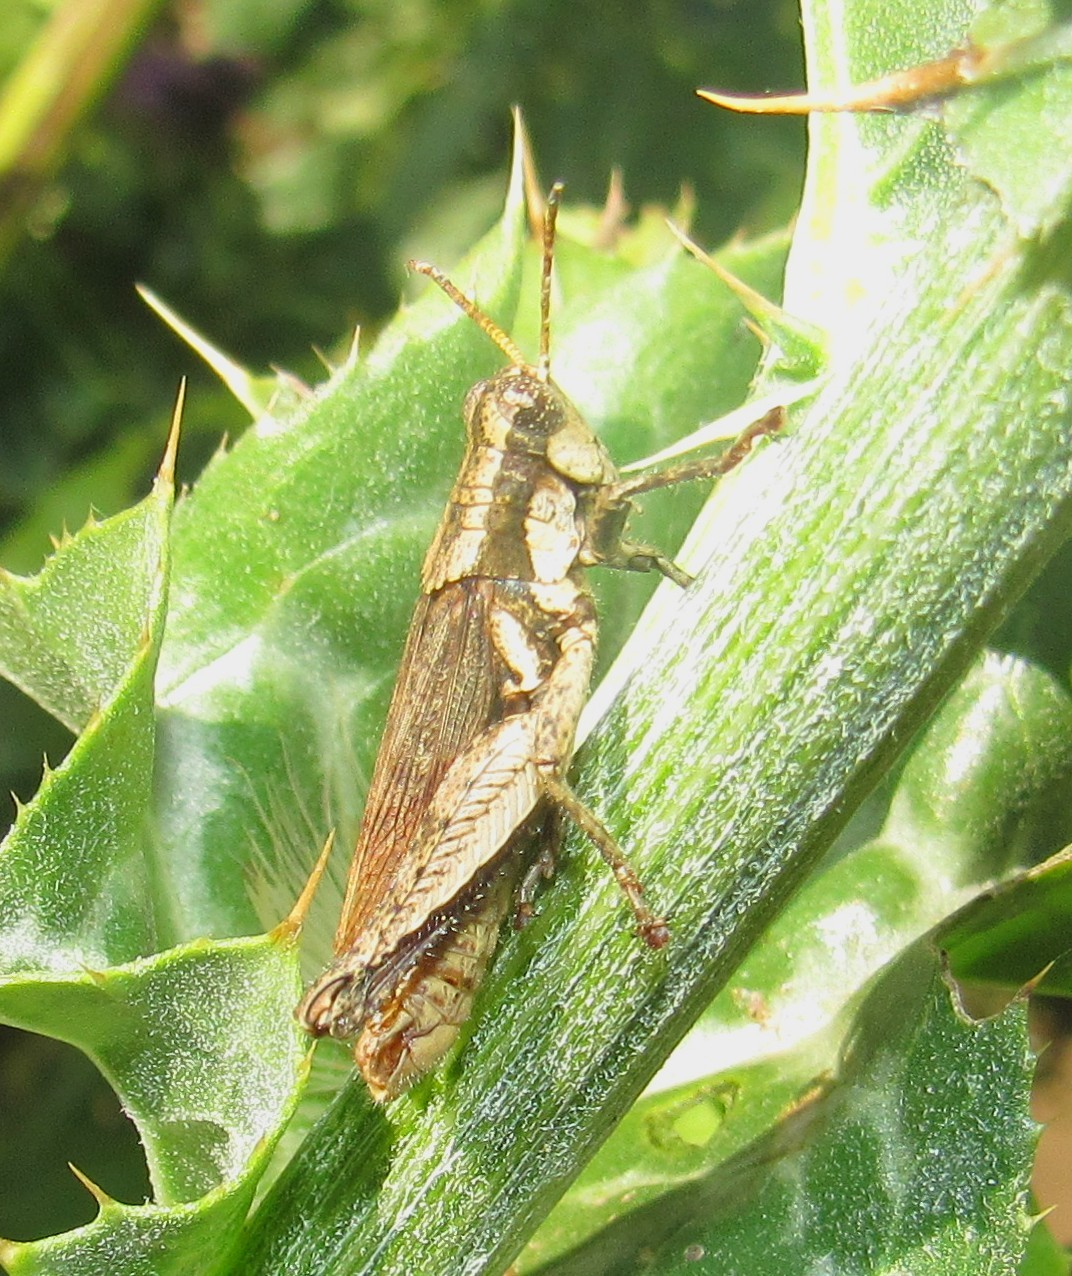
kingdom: Animalia
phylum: Arthropoda
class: Insecta
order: Orthoptera
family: Acrididae
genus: Ronderosia
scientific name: Ronderosia bergii
